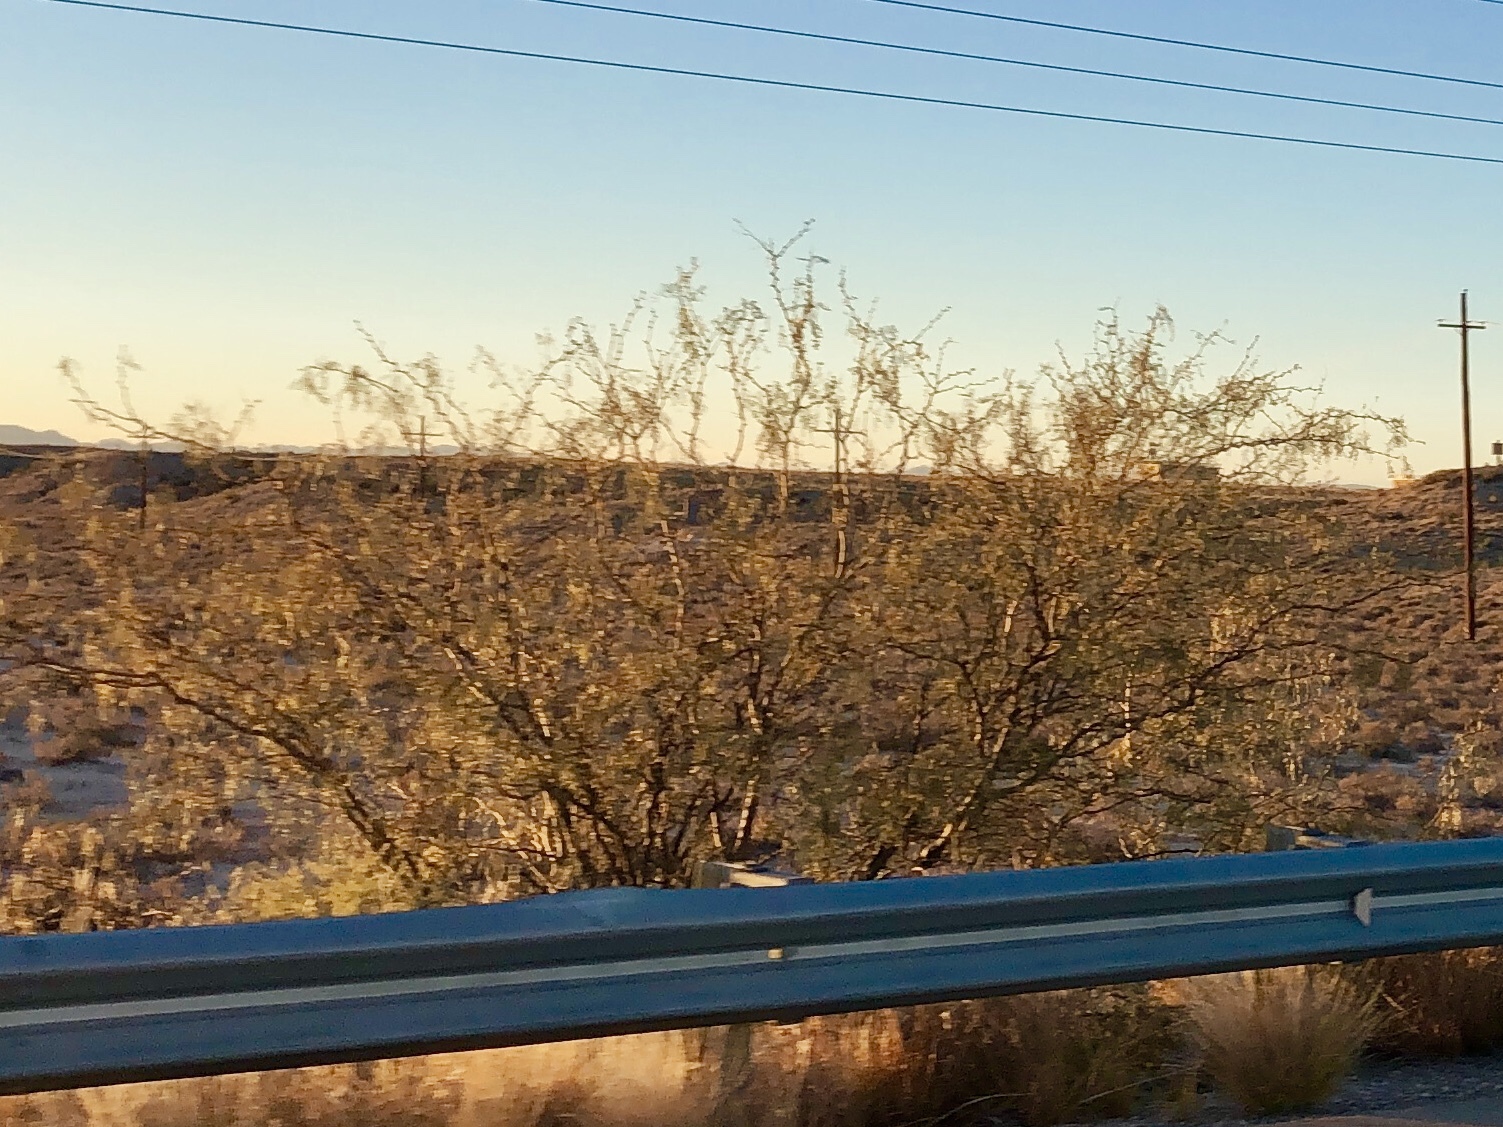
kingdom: Plantae
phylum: Tracheophyta
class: Magnoliopsida
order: Fabales
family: Fabaceae
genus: Prosopis
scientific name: Prosopis glandulosa
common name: Honey mesquite
